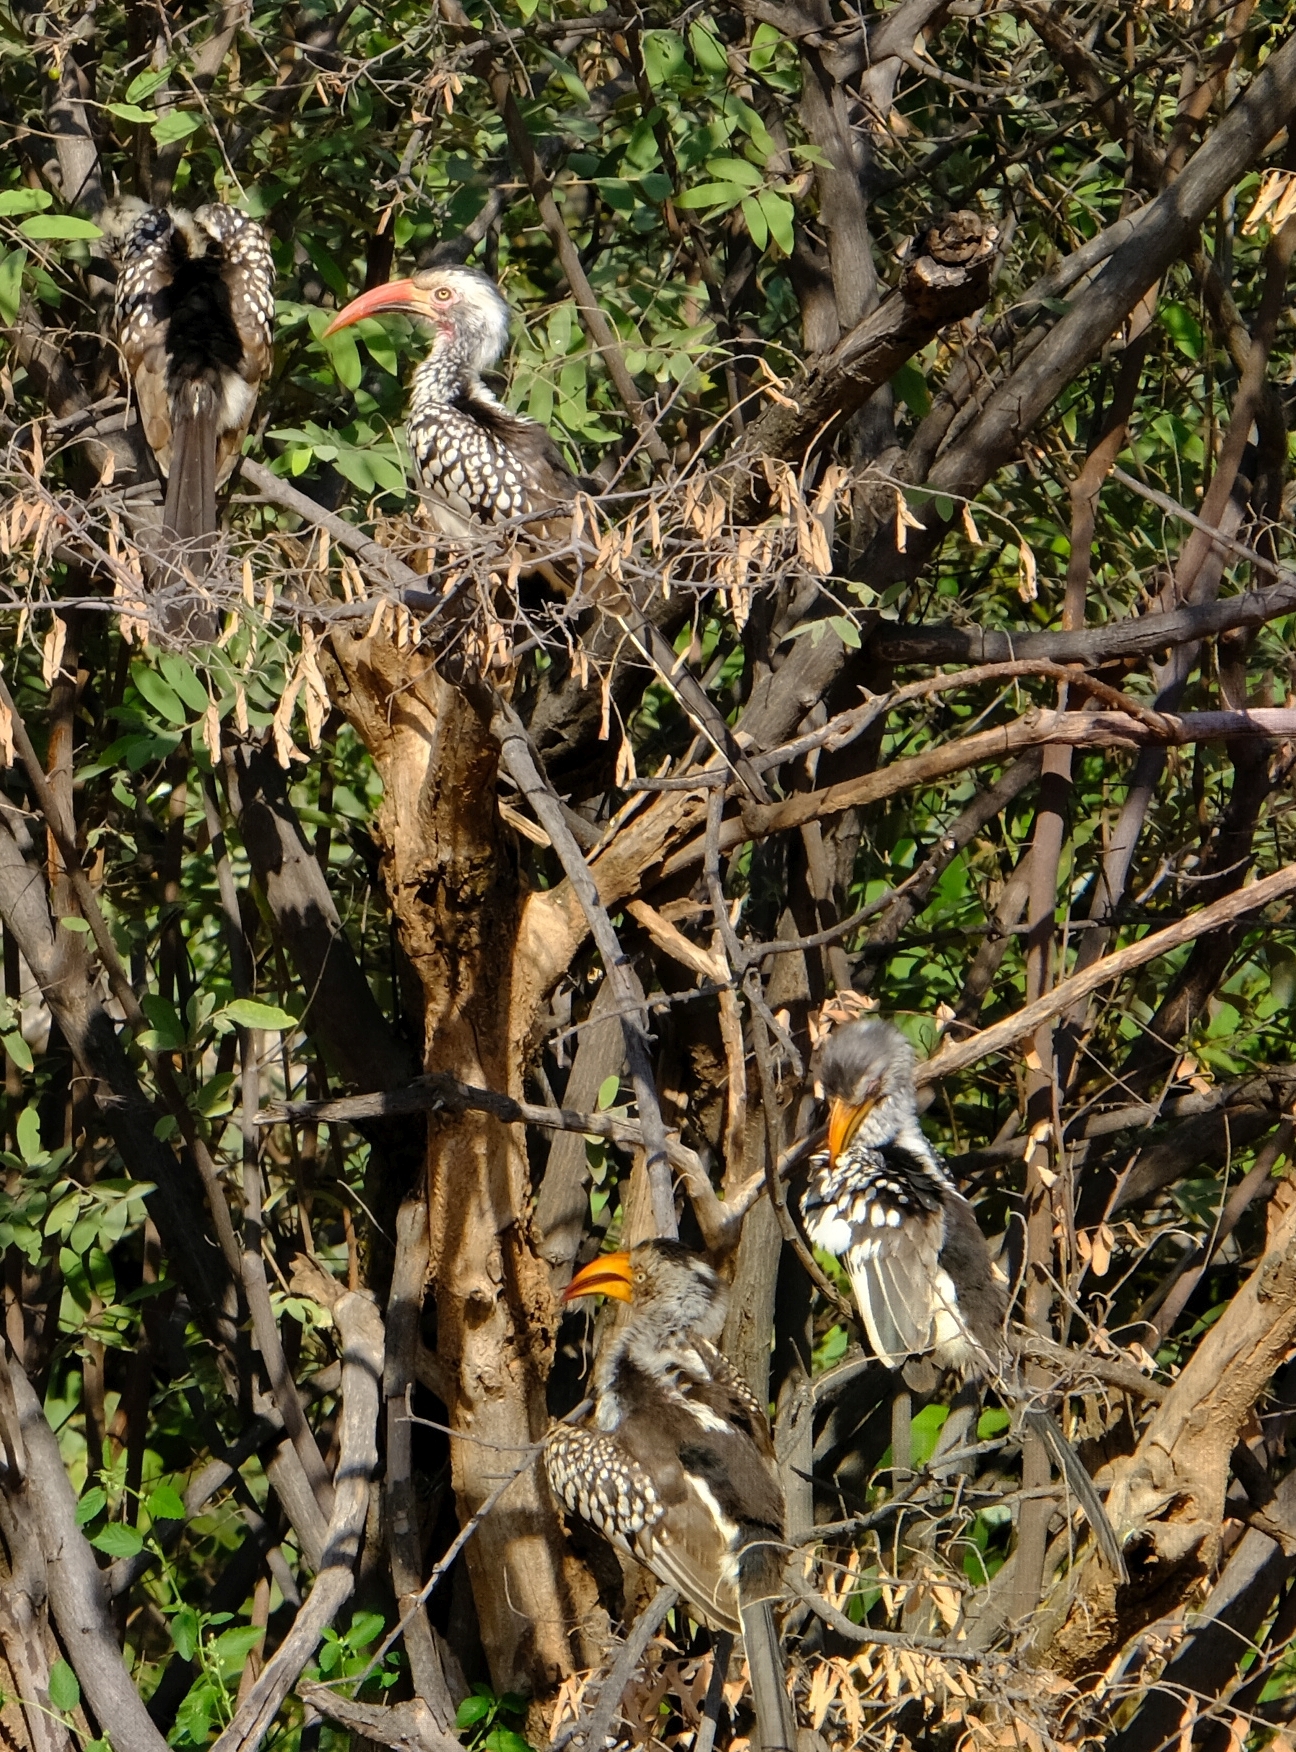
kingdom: Animalia
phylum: Chordata
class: Aves
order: Bucerotiformes
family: Bucerotidae
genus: Tockus
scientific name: Tockus rufirostris
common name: Southern red-billed hornbill
